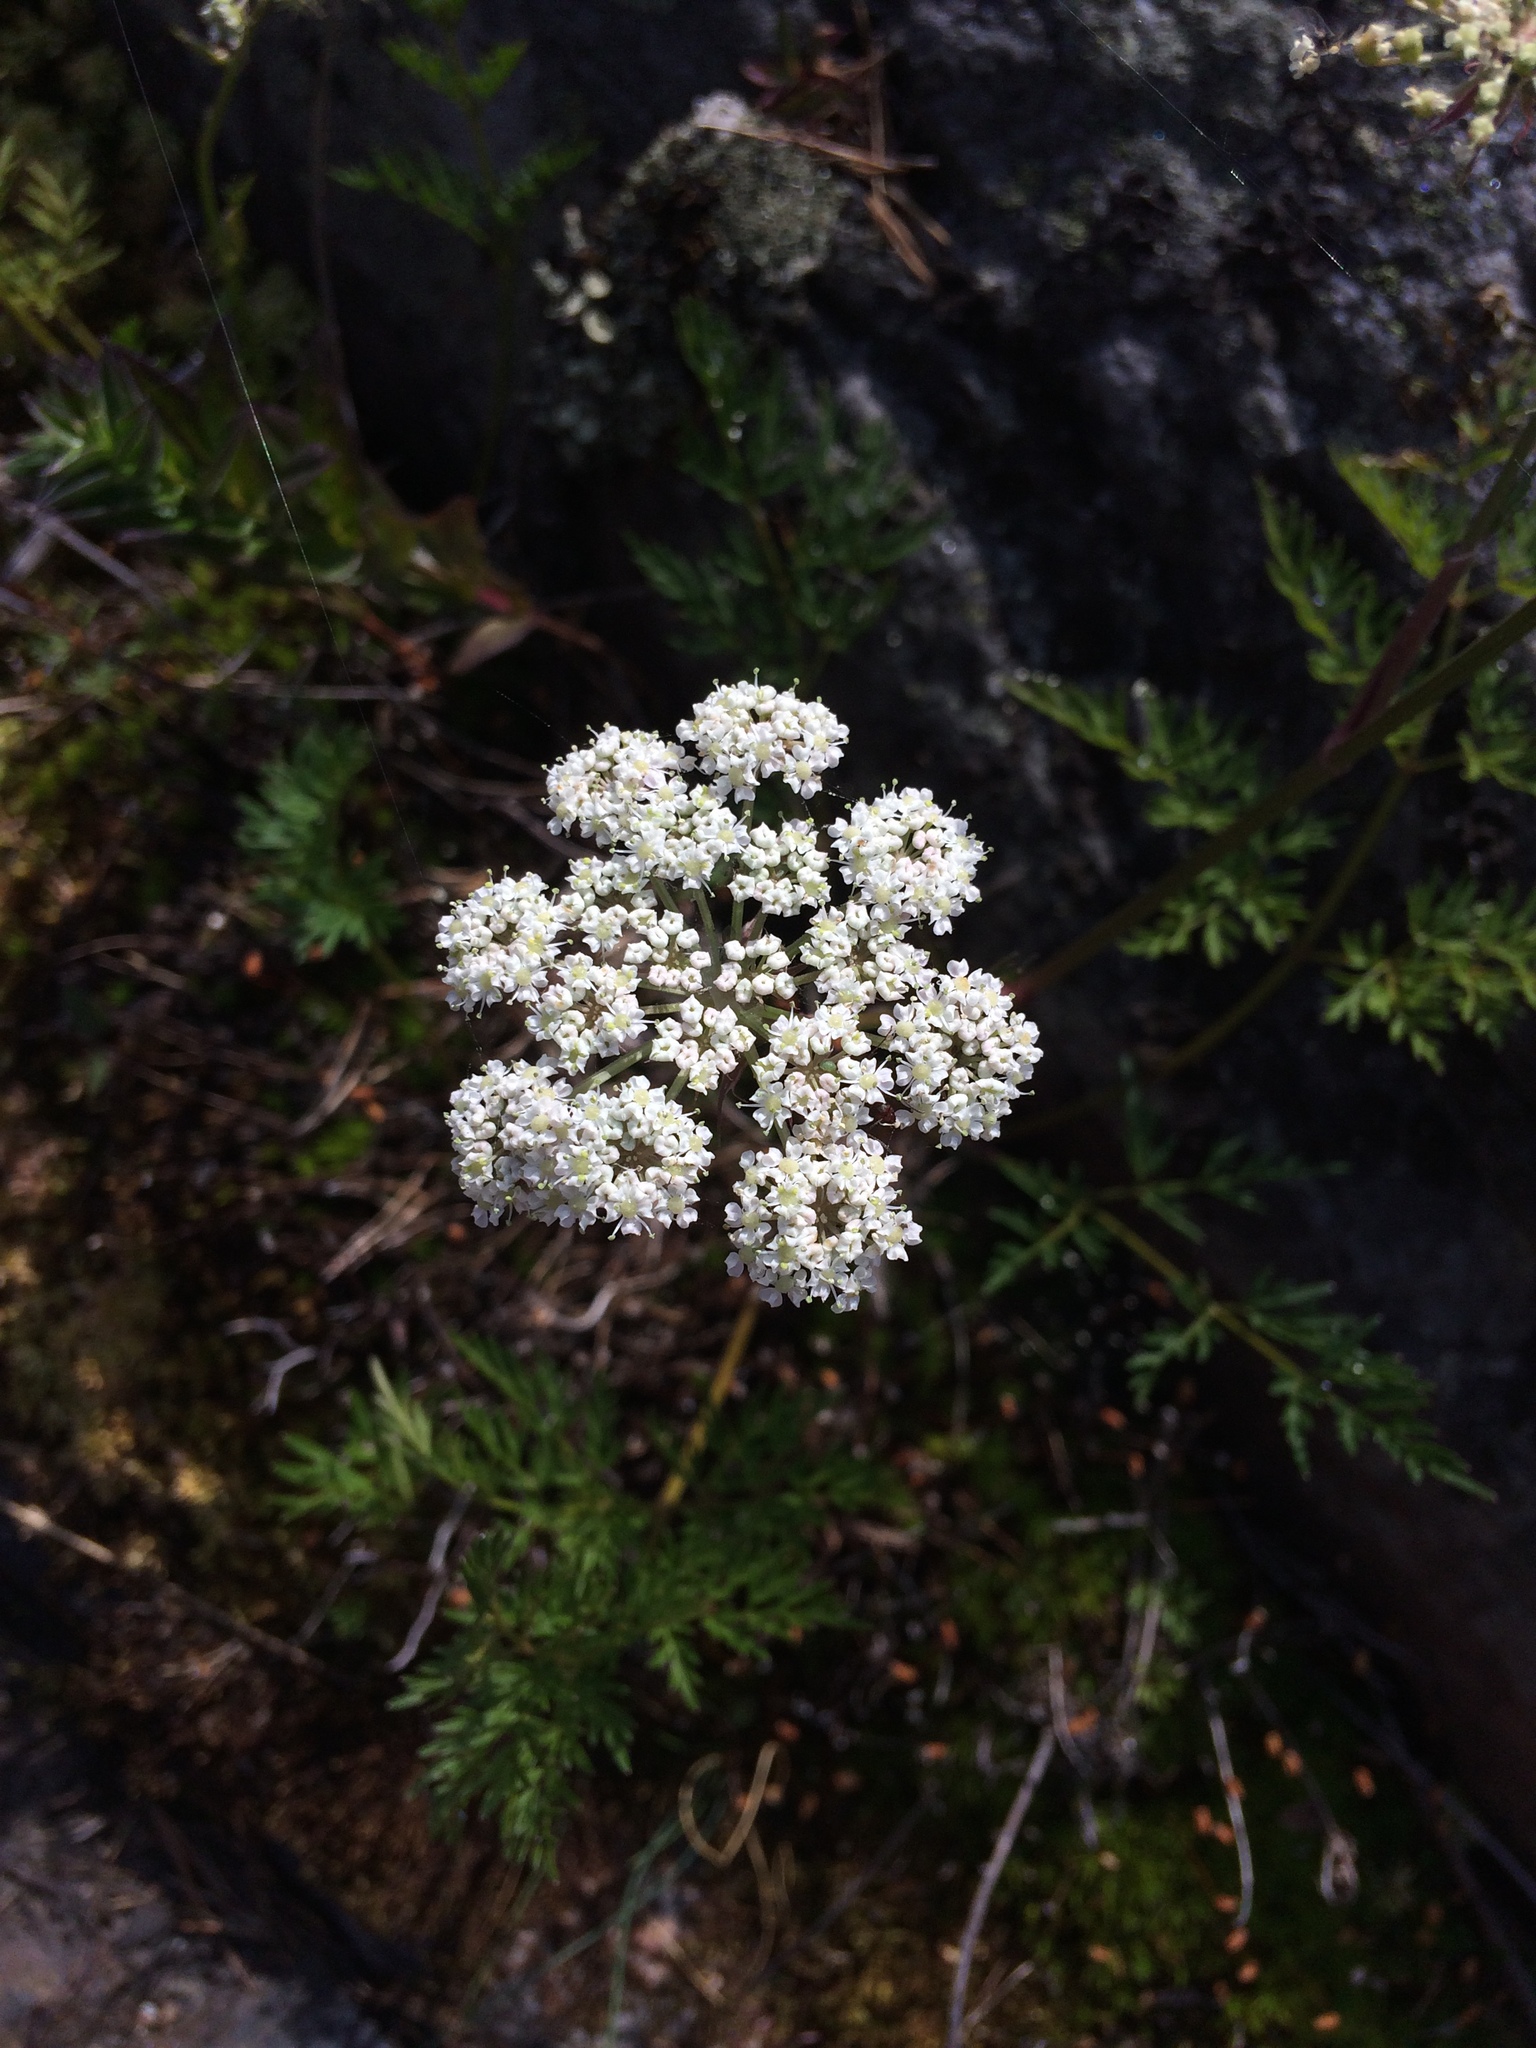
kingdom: Plantae
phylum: Tracheophyta
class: Magnoliopsida
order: Apiales
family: Apiaceae
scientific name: Apiaceae
